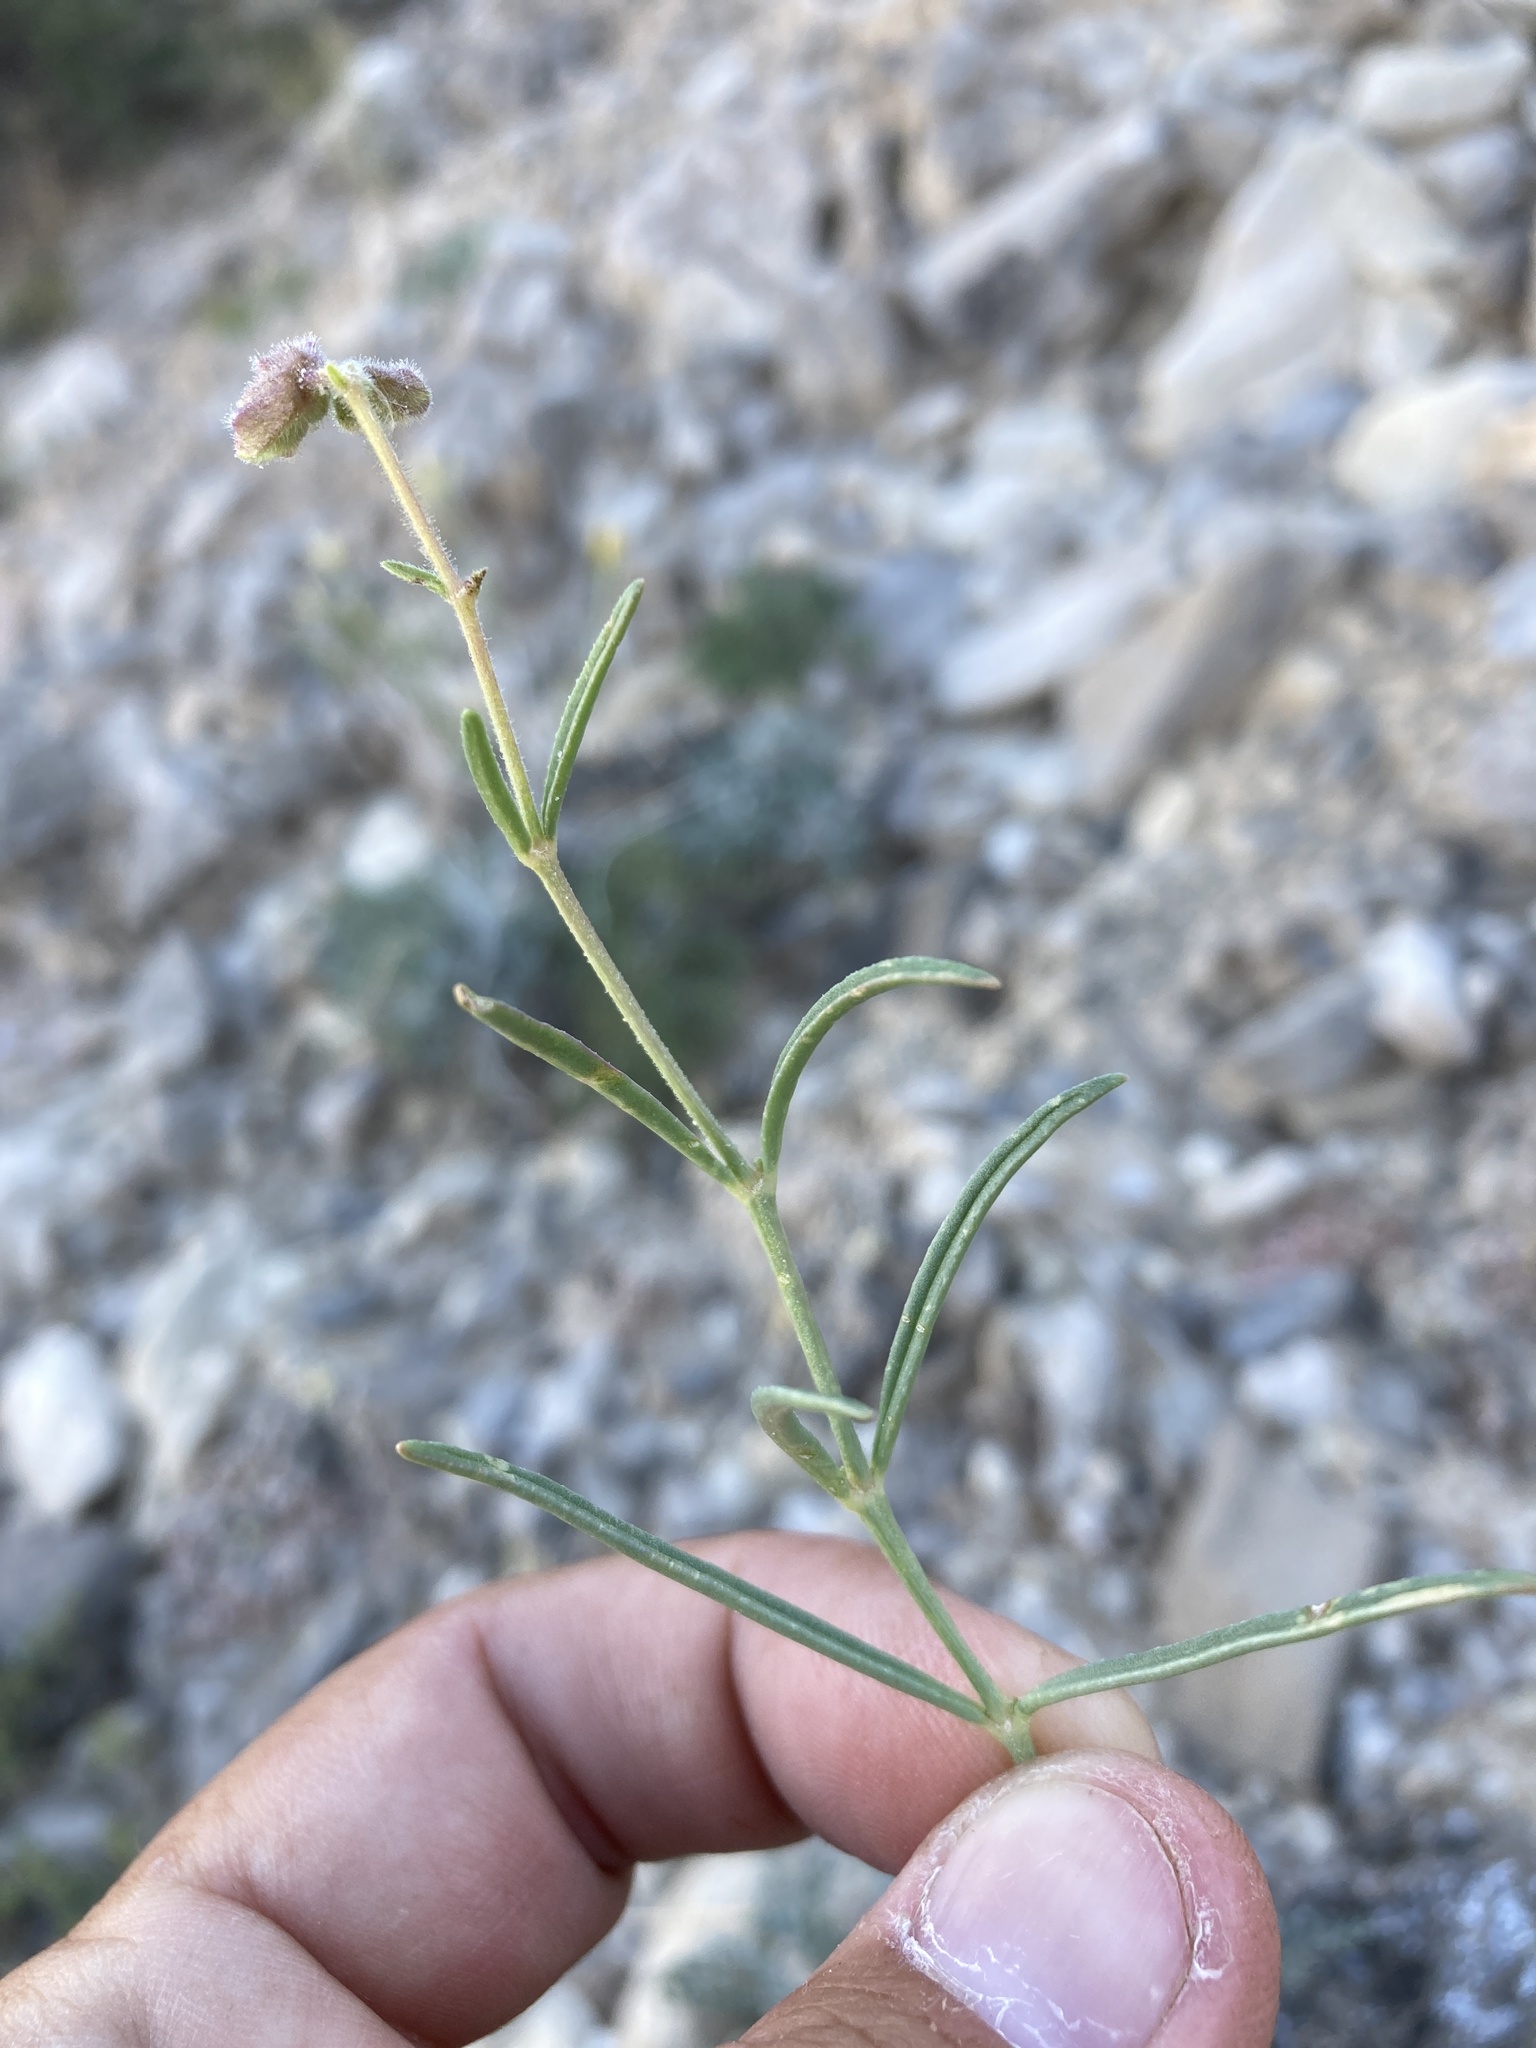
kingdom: Plantae
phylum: Tracheophyta
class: Magnoliopsida
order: Caryophyllales
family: Nyctaginaceae
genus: Mirabilis
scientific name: Mirabilis linearis
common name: Linear-leaved four-o'clock
